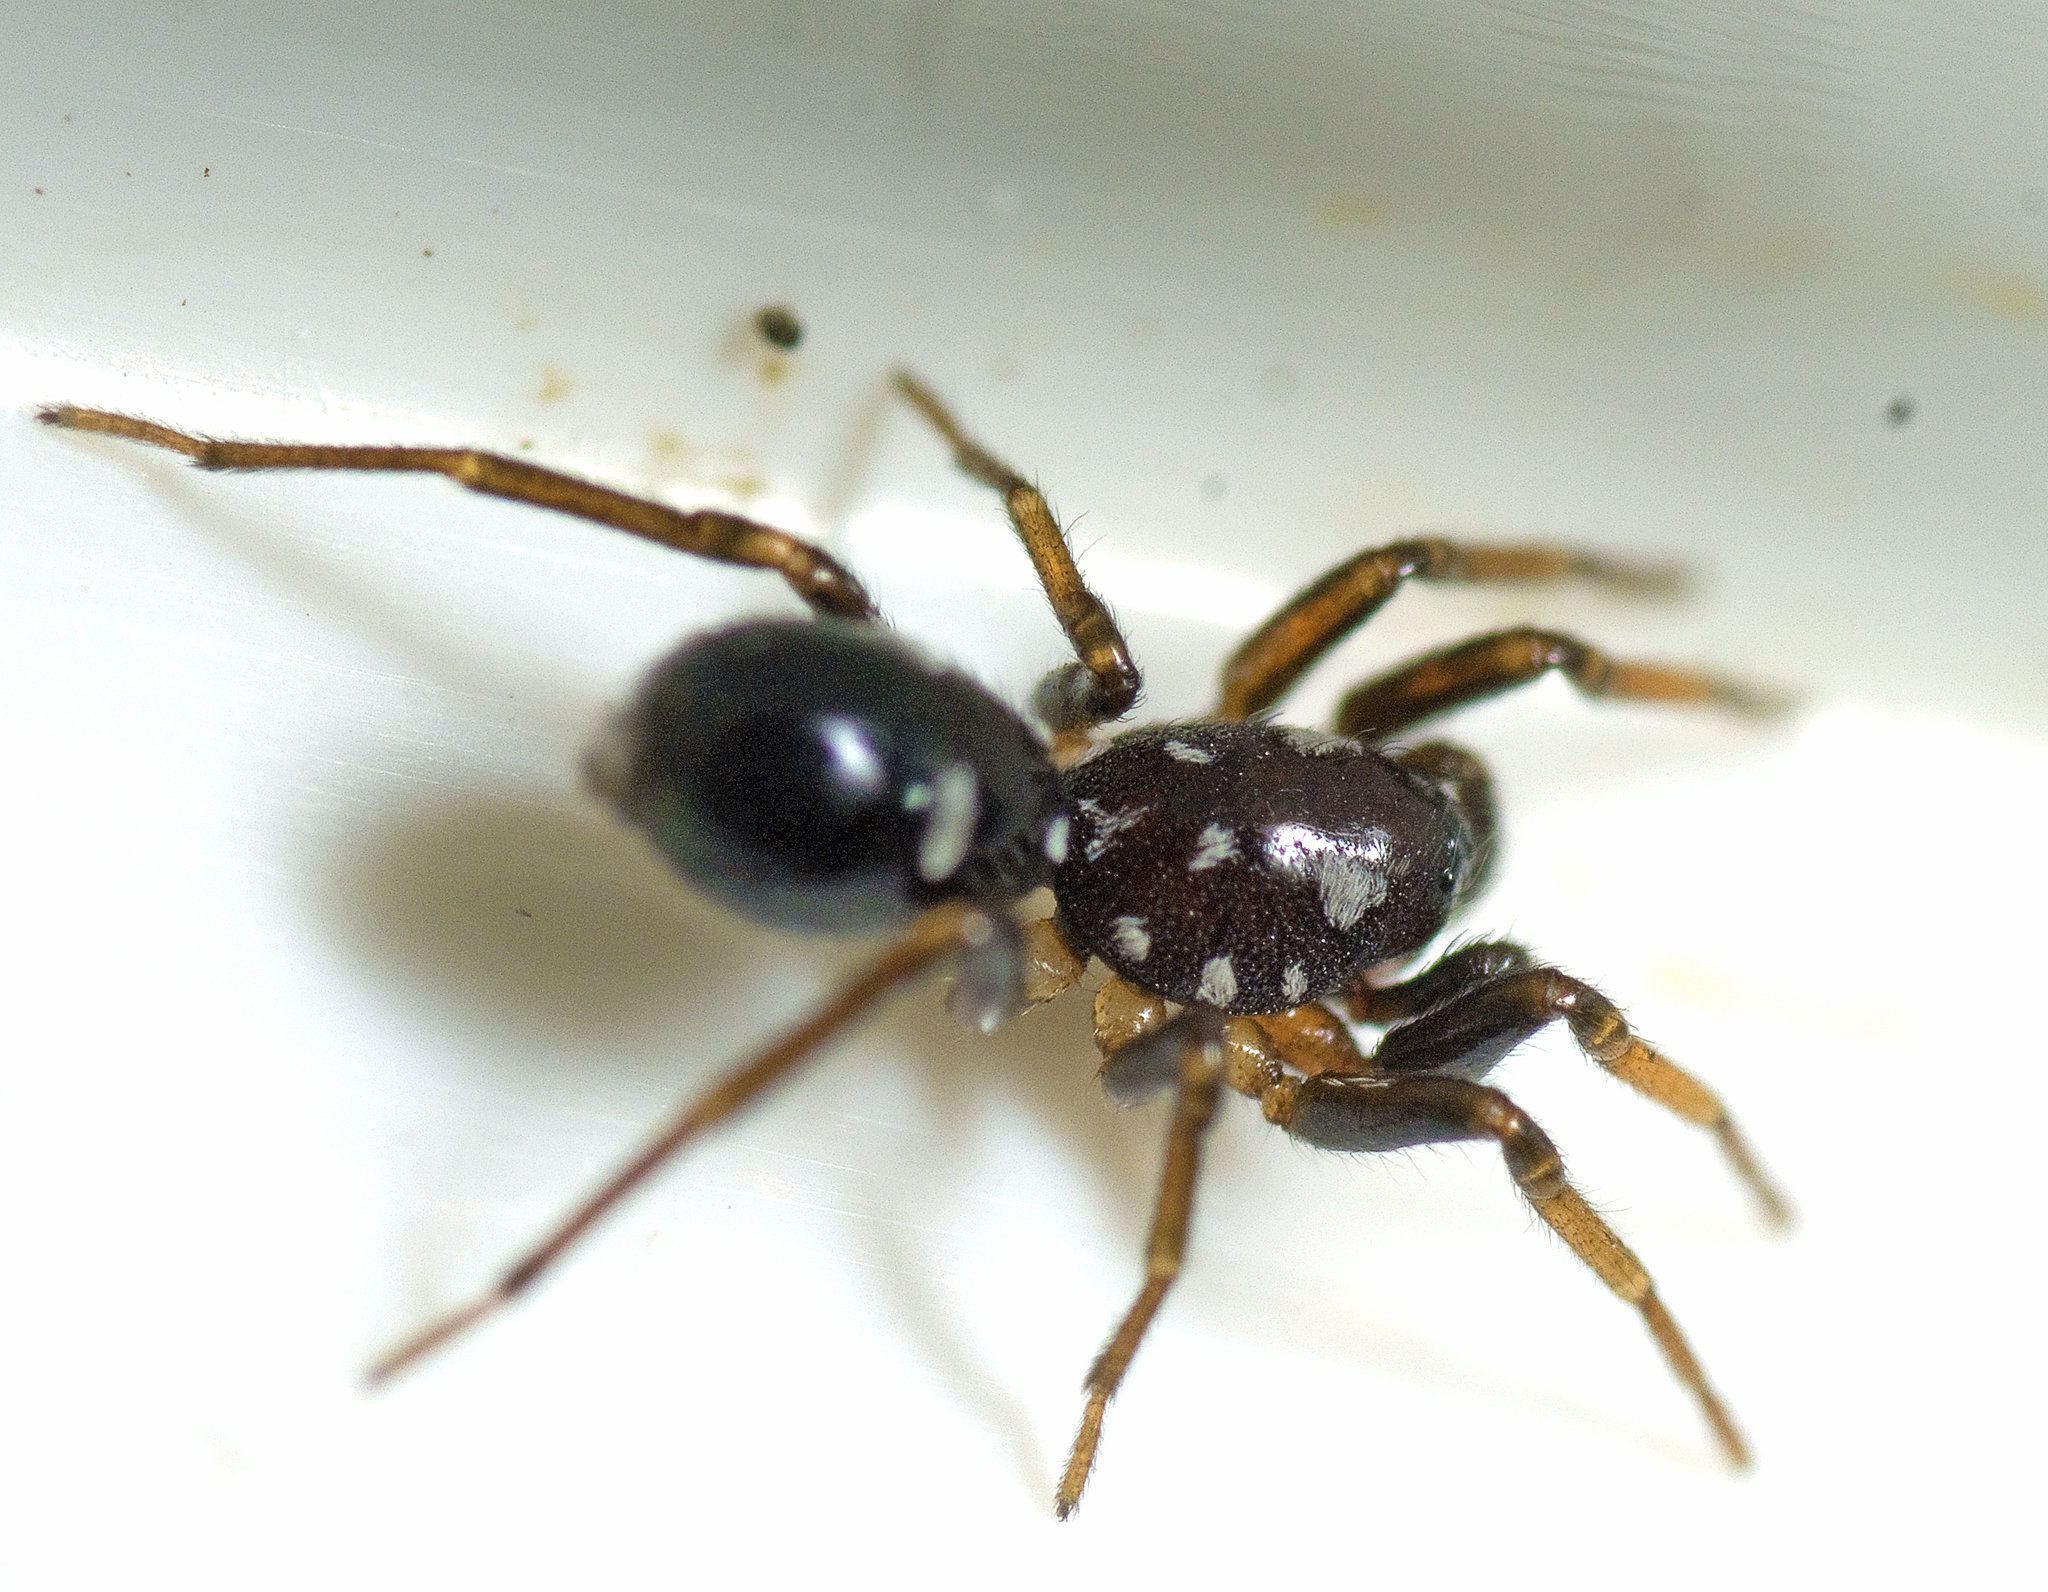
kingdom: Animalia
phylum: Arthropoda
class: Arachnida
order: Araneae
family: Lamponidae
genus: Queenvic
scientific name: Queenvic goanna
